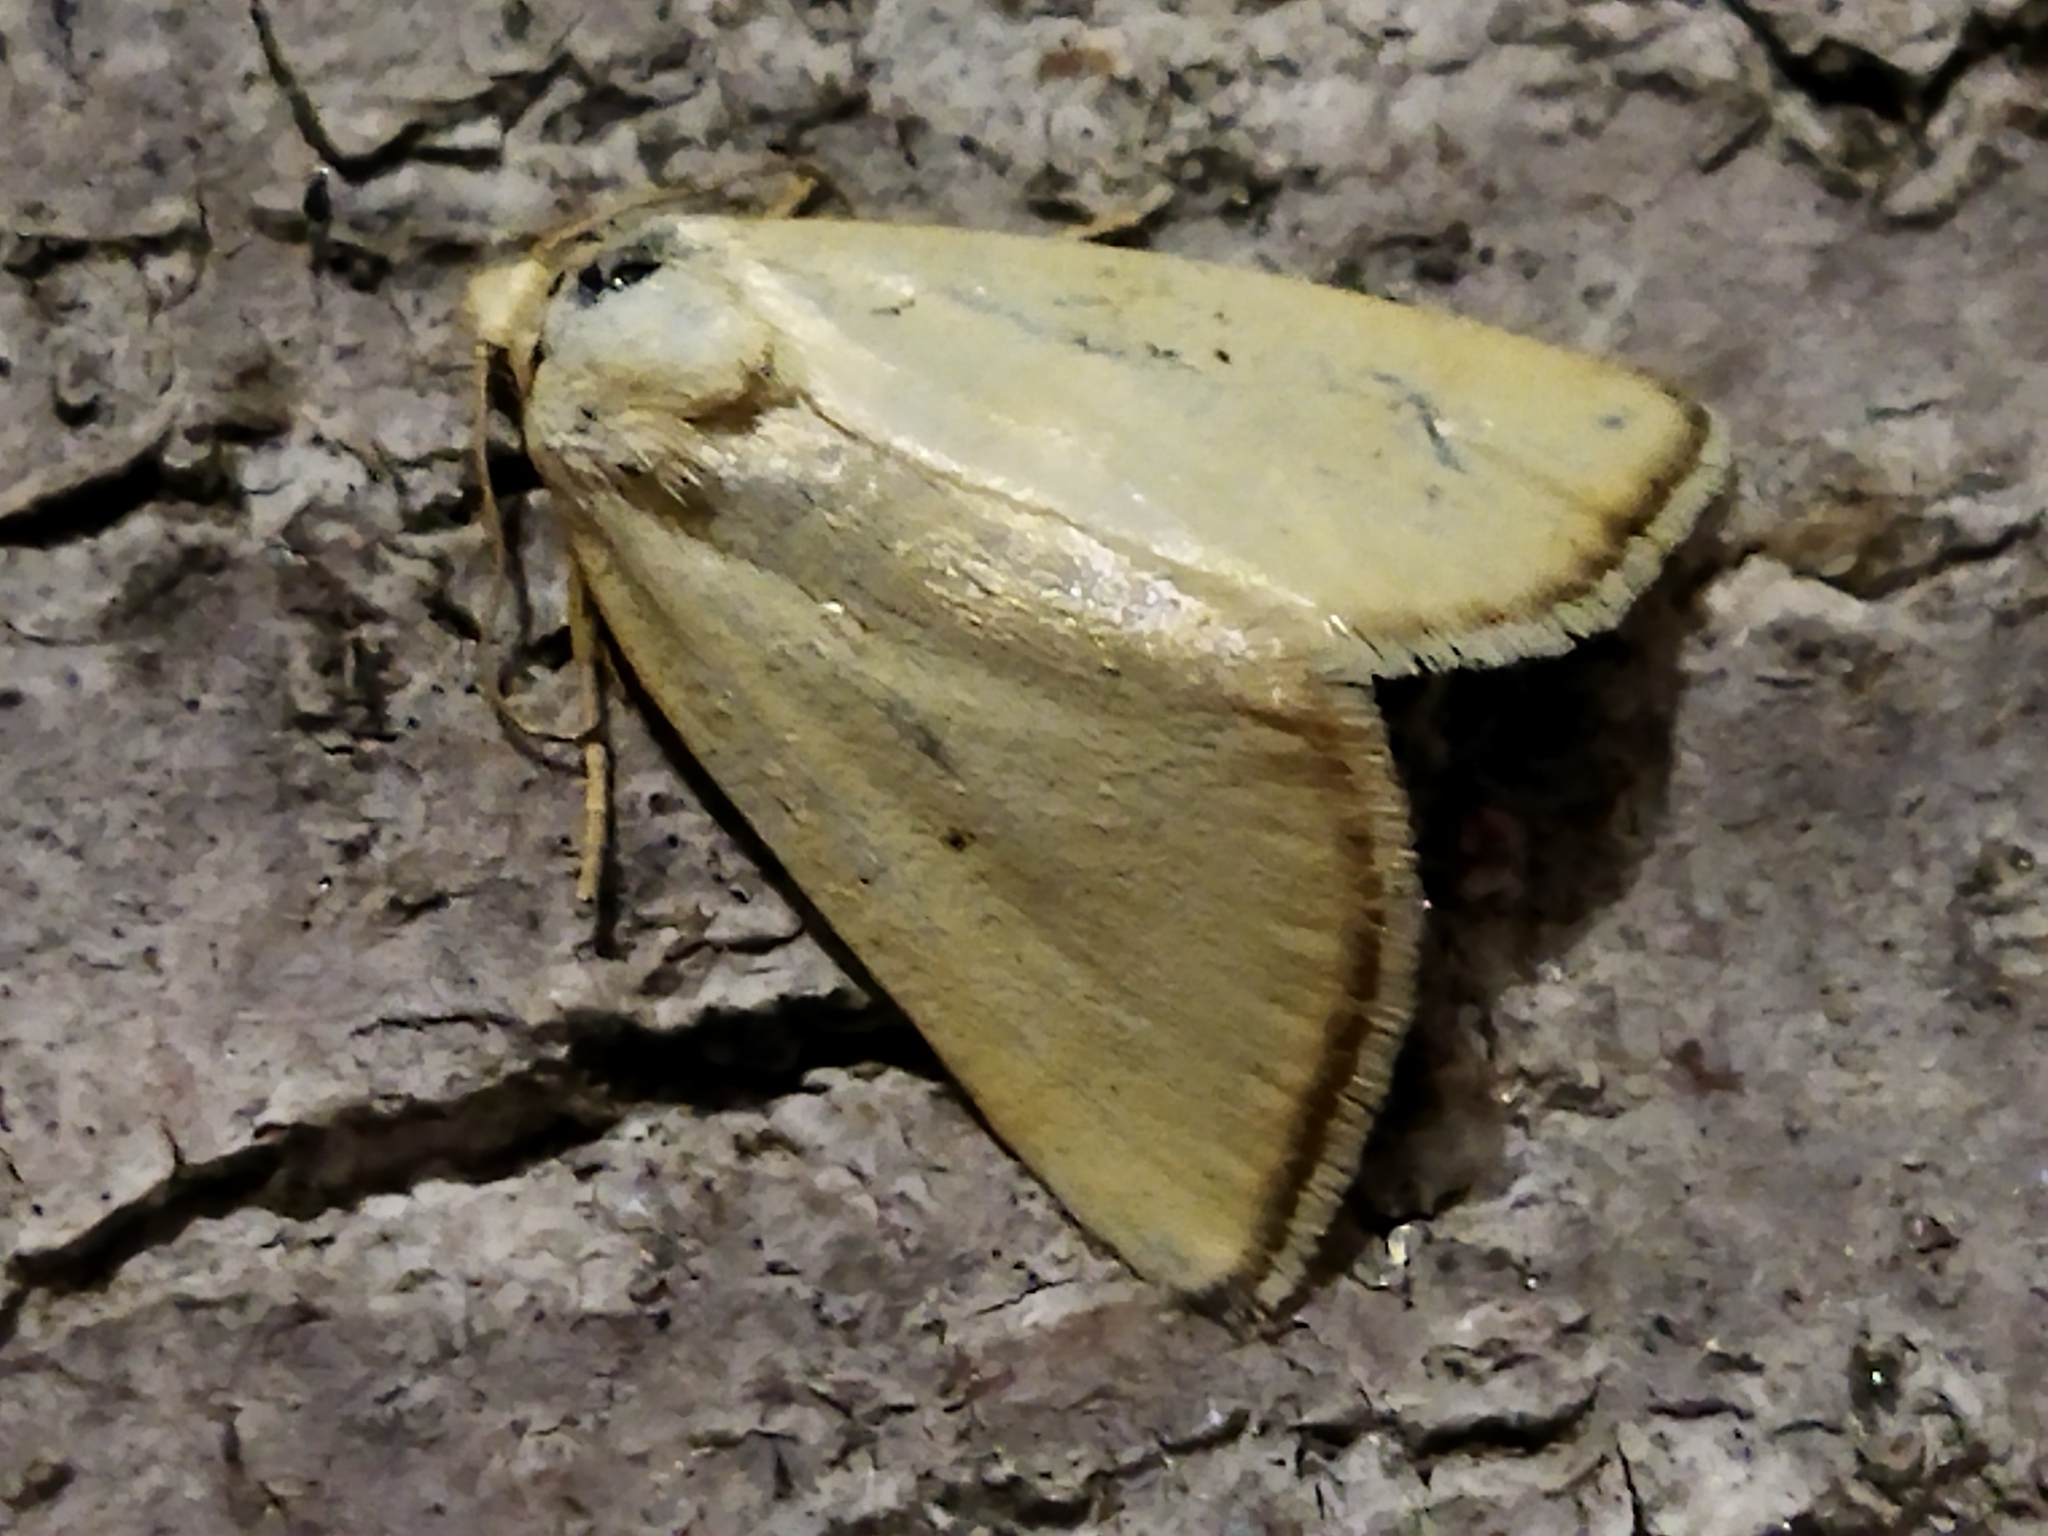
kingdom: Animalia
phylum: Arthropoda
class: Insecta
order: Lepidoptera
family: Noctuidae
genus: Aegle
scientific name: Aegle kaekeritziana
